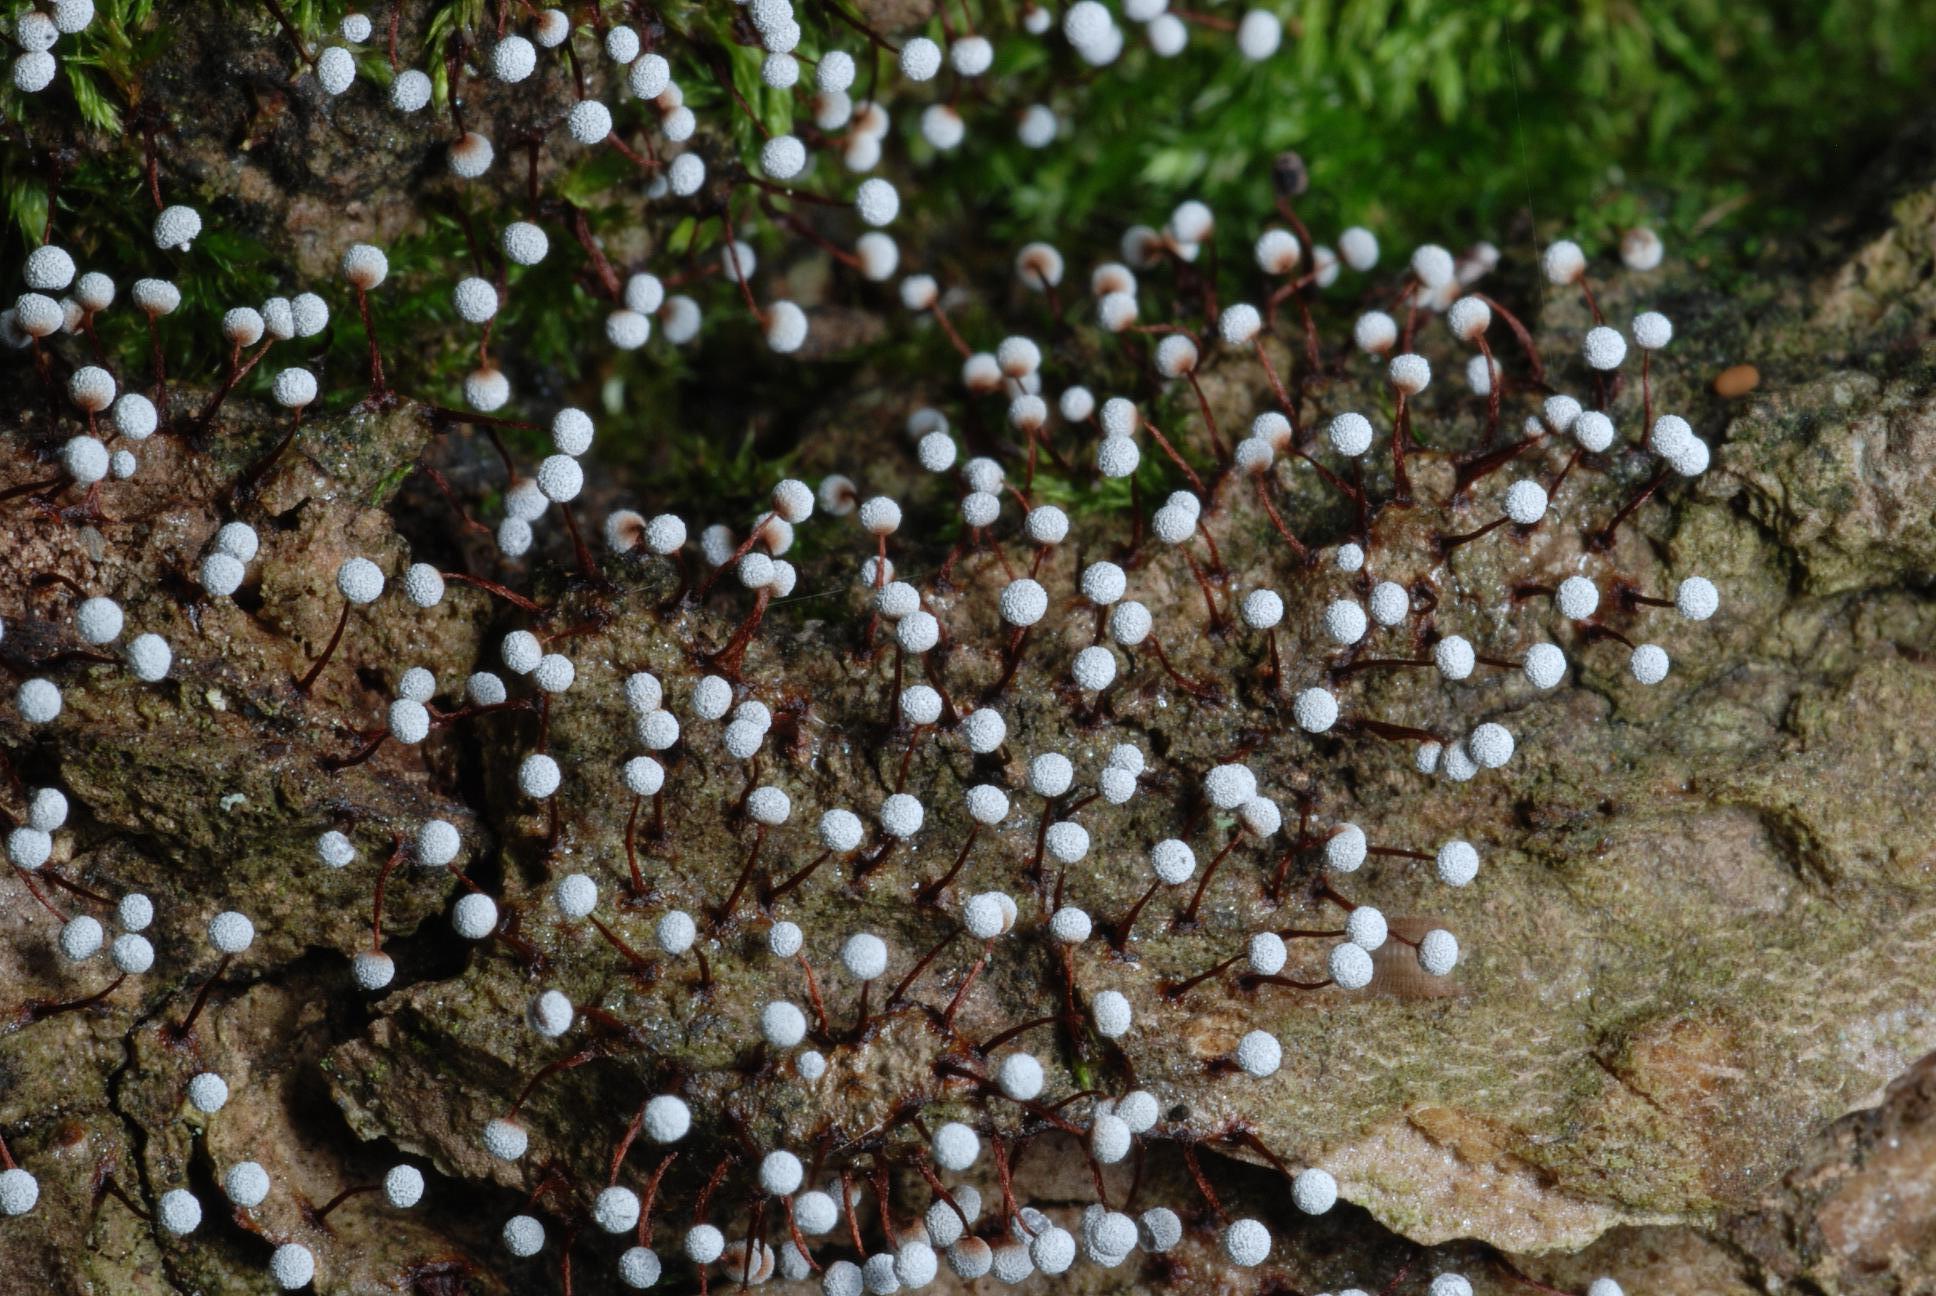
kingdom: Protozoa
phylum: Mycetozoa
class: Myxomycetes
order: Physarales
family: Physaraceae
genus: Physarum
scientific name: Physarum pusillum
